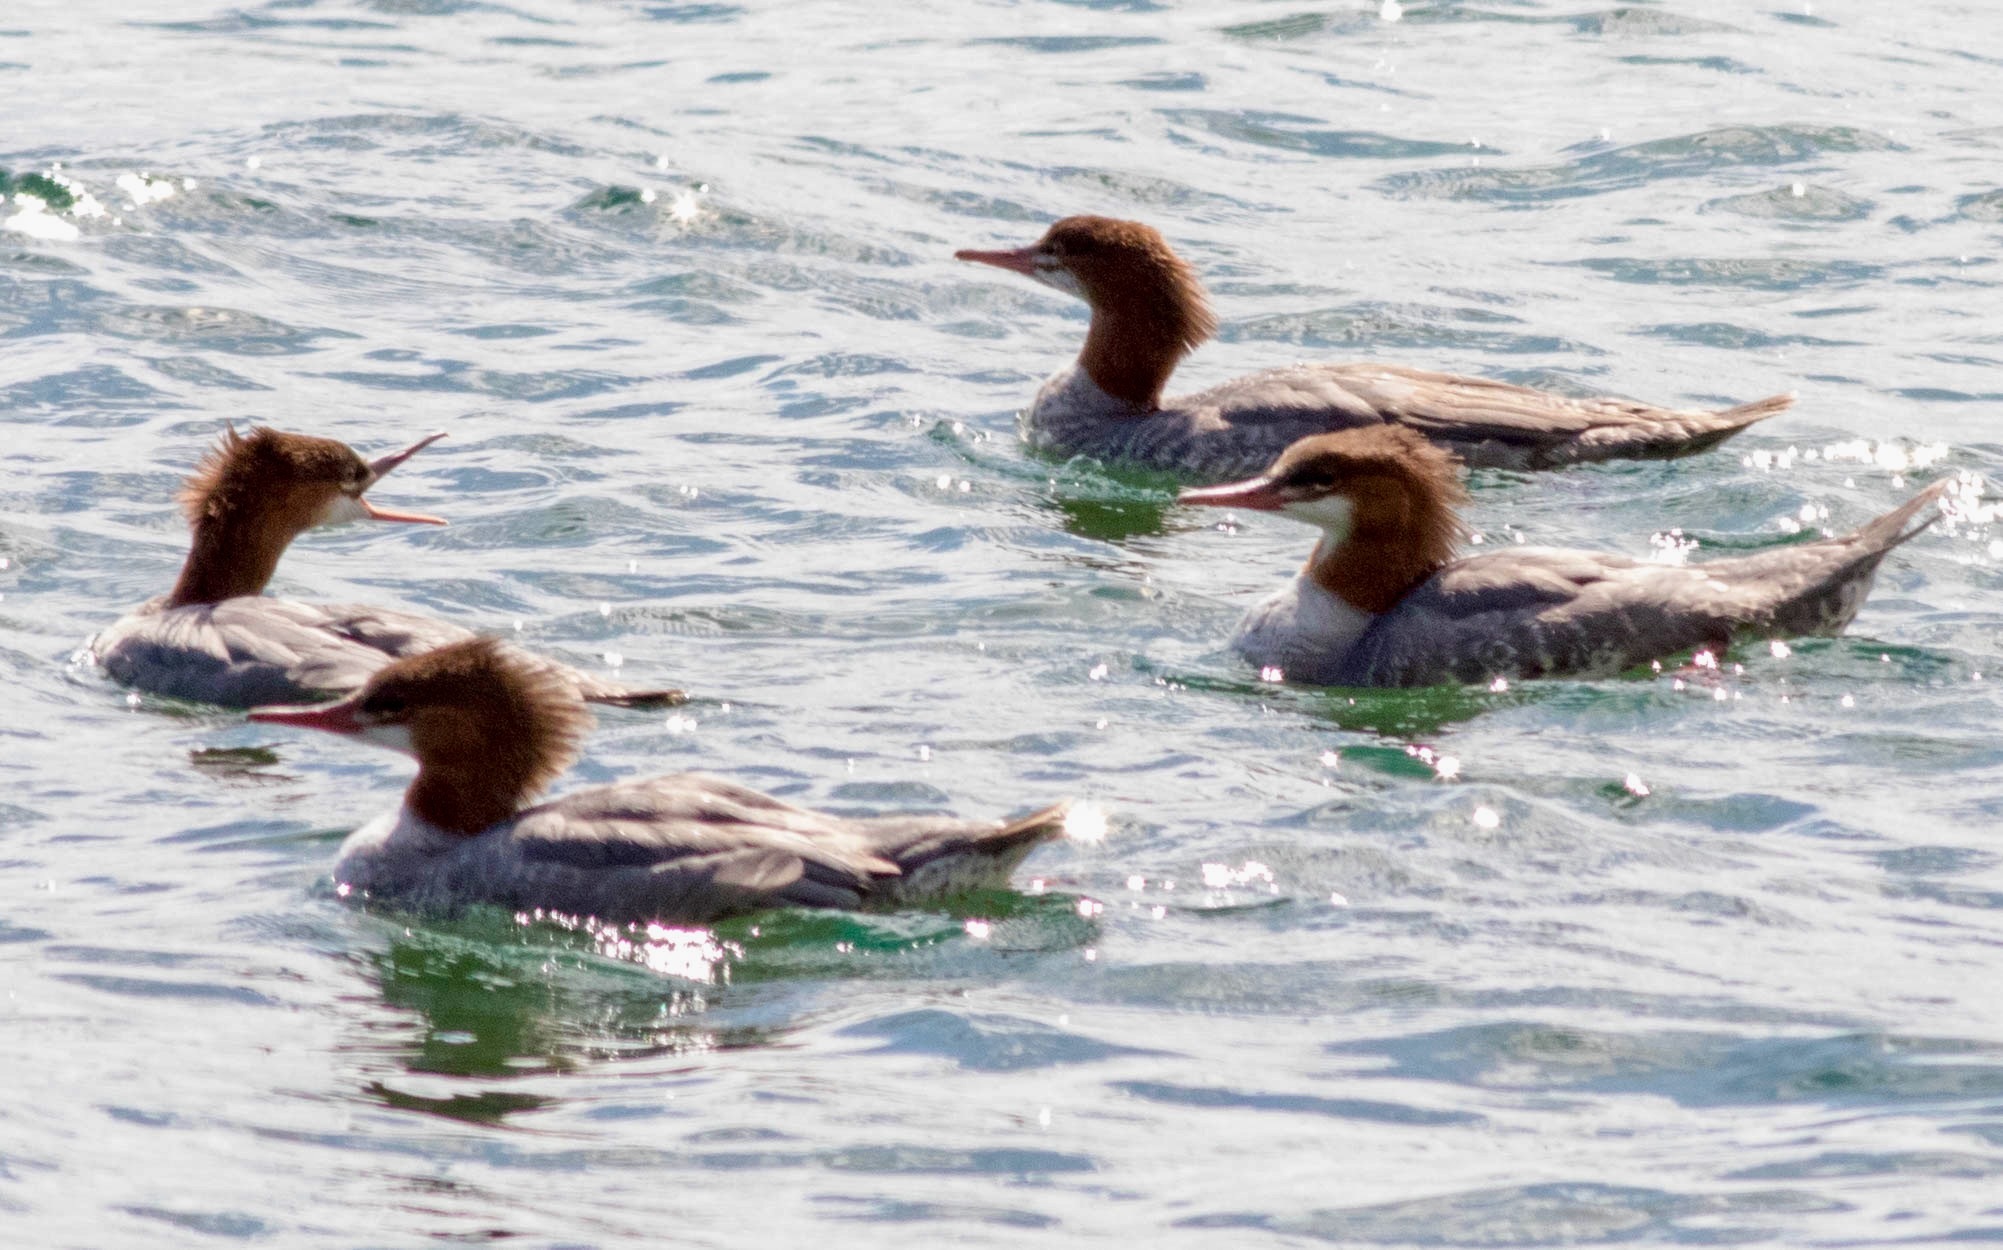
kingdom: Animalia
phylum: Chordata
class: Aves
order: Anseriformes
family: Anatidae
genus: Mergus
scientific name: Mergus merganser
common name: Common merganser
